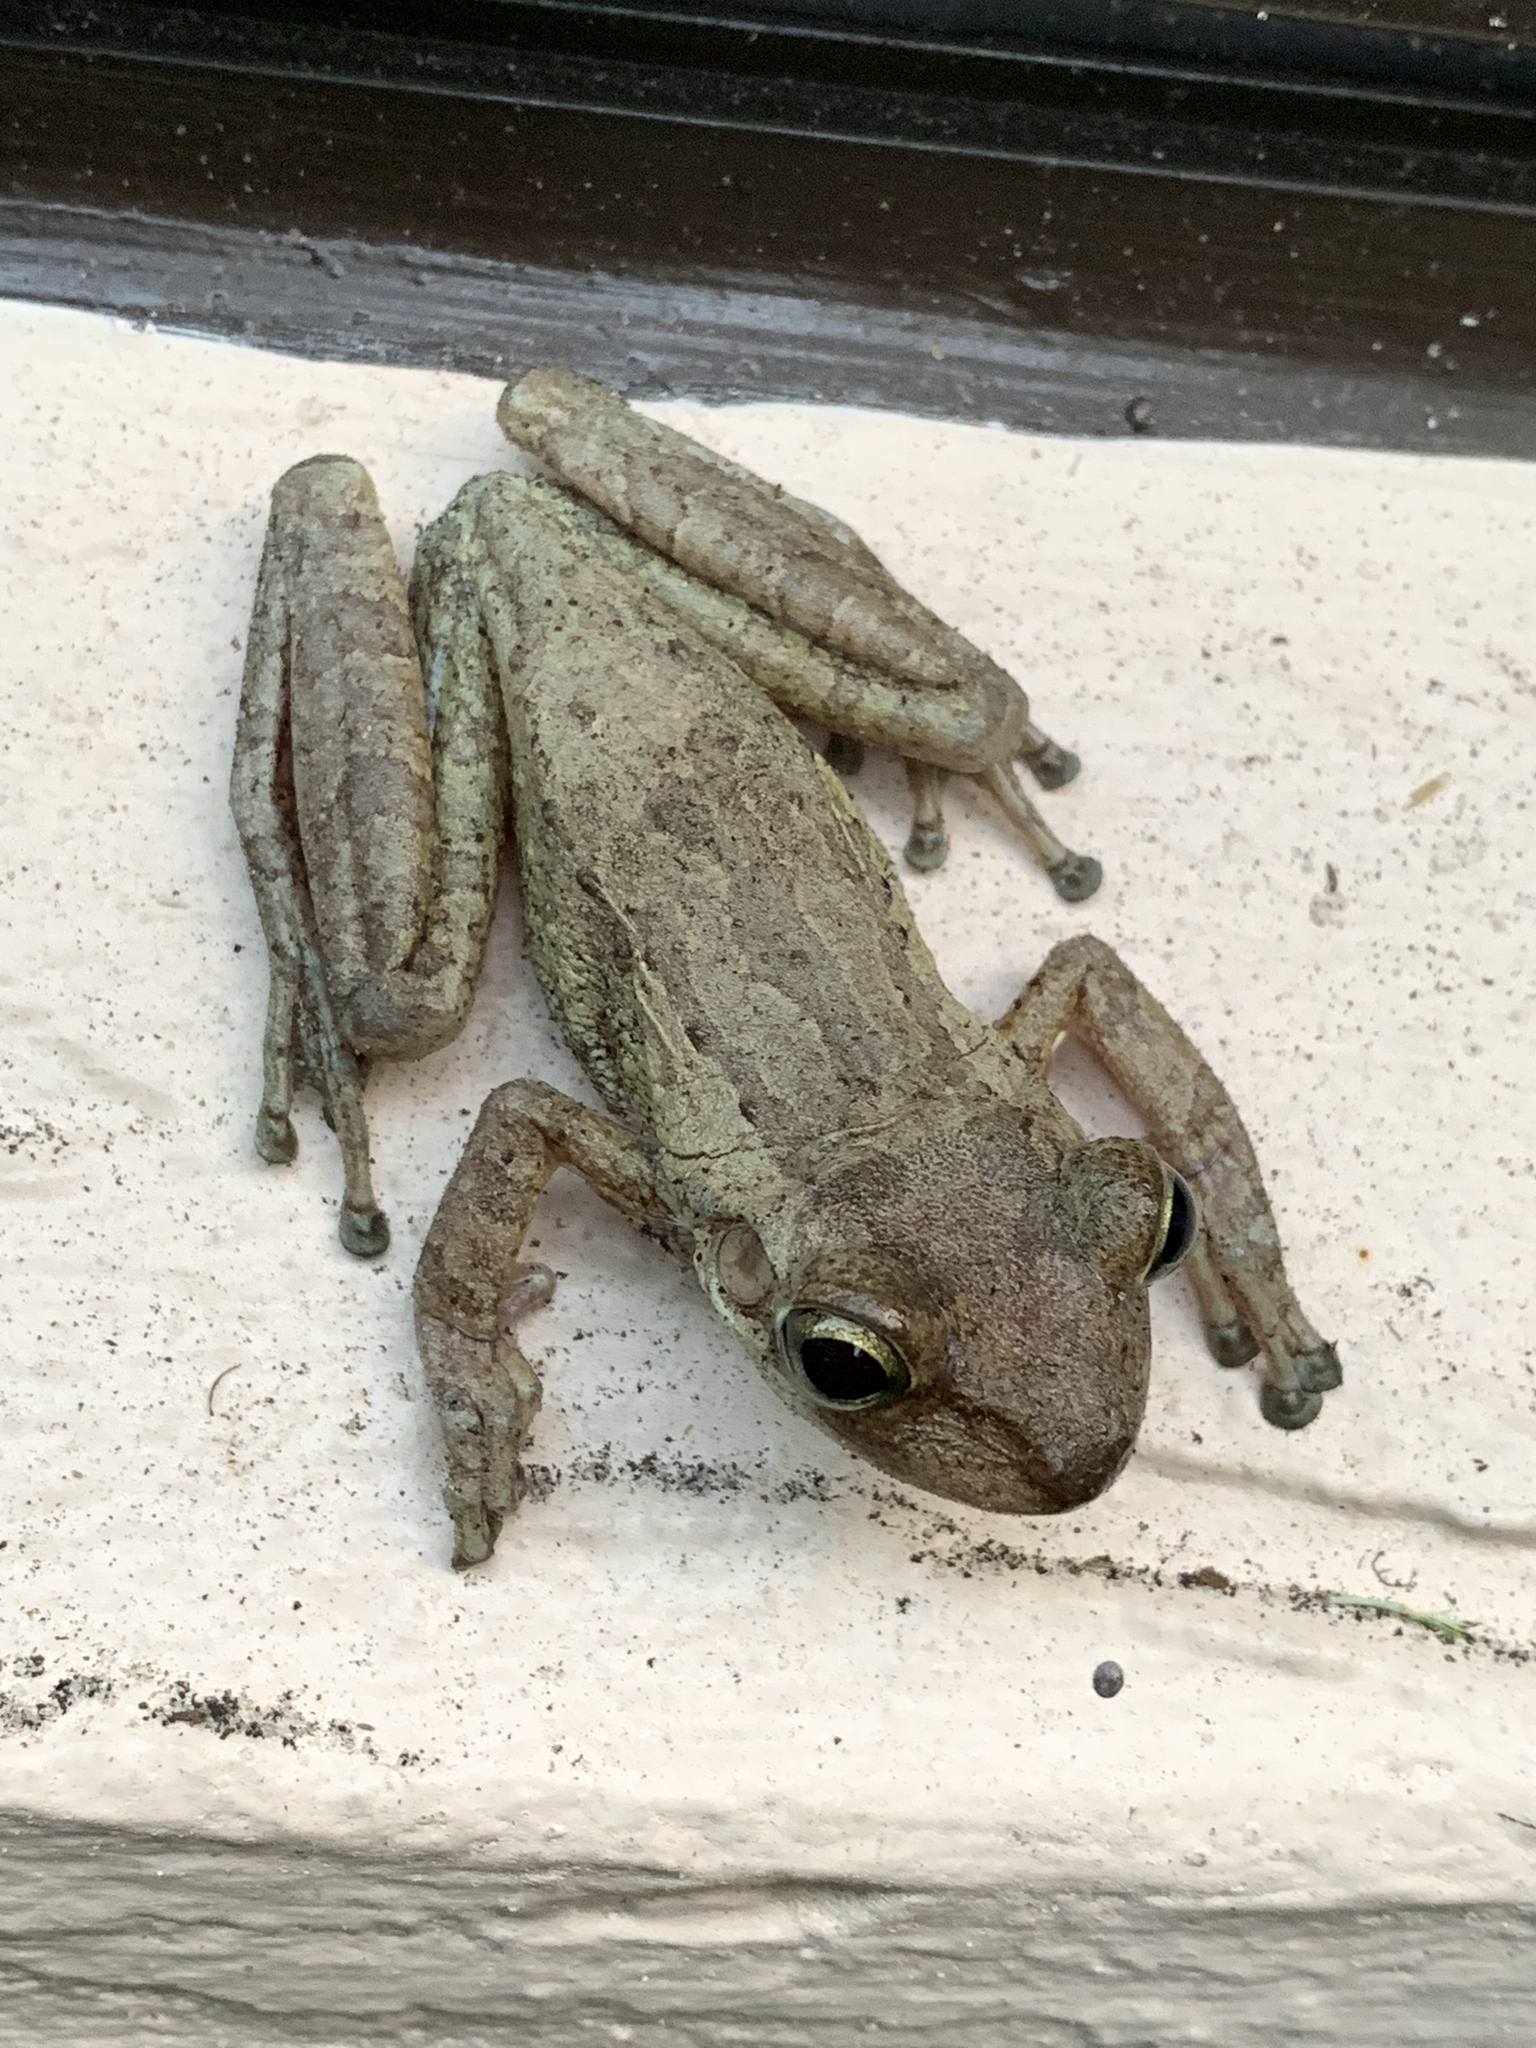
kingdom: Animalia
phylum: Chordata
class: Amphibia
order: Anura
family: Hylidae
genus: Osteopilus
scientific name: Osteopilus septentrionalis
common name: Cuban treefrog
